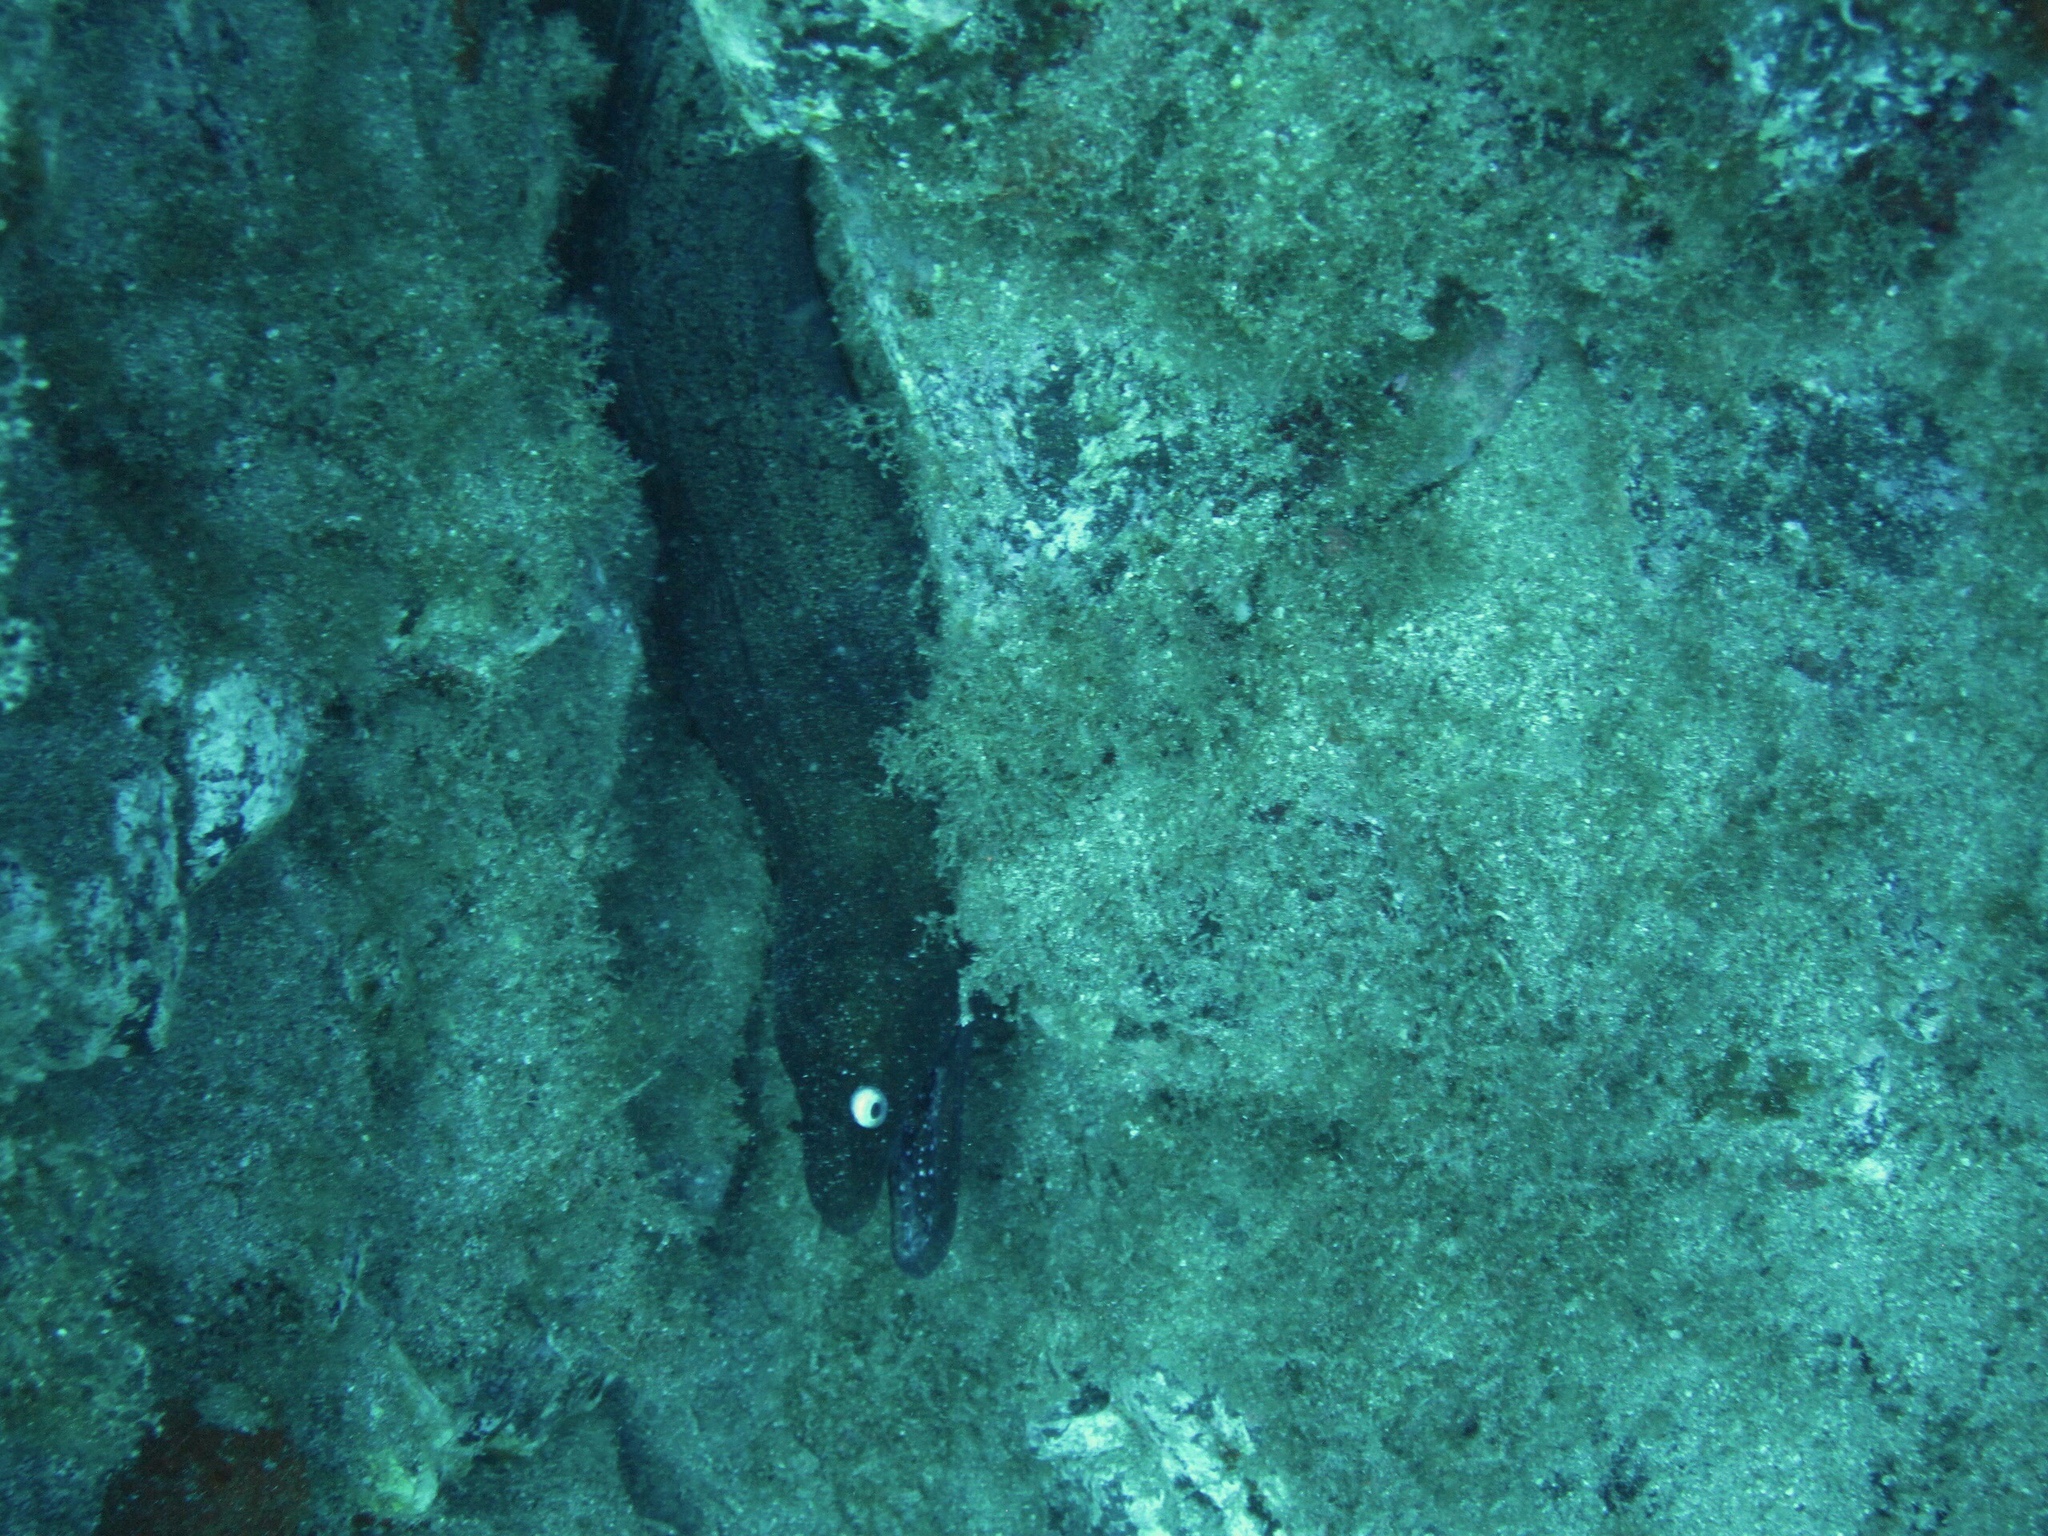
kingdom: Animalia
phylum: Chordata
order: Anguilliformes
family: Muraenidae
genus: Muraena
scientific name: Muraena augusti
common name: Mediterranean moray
